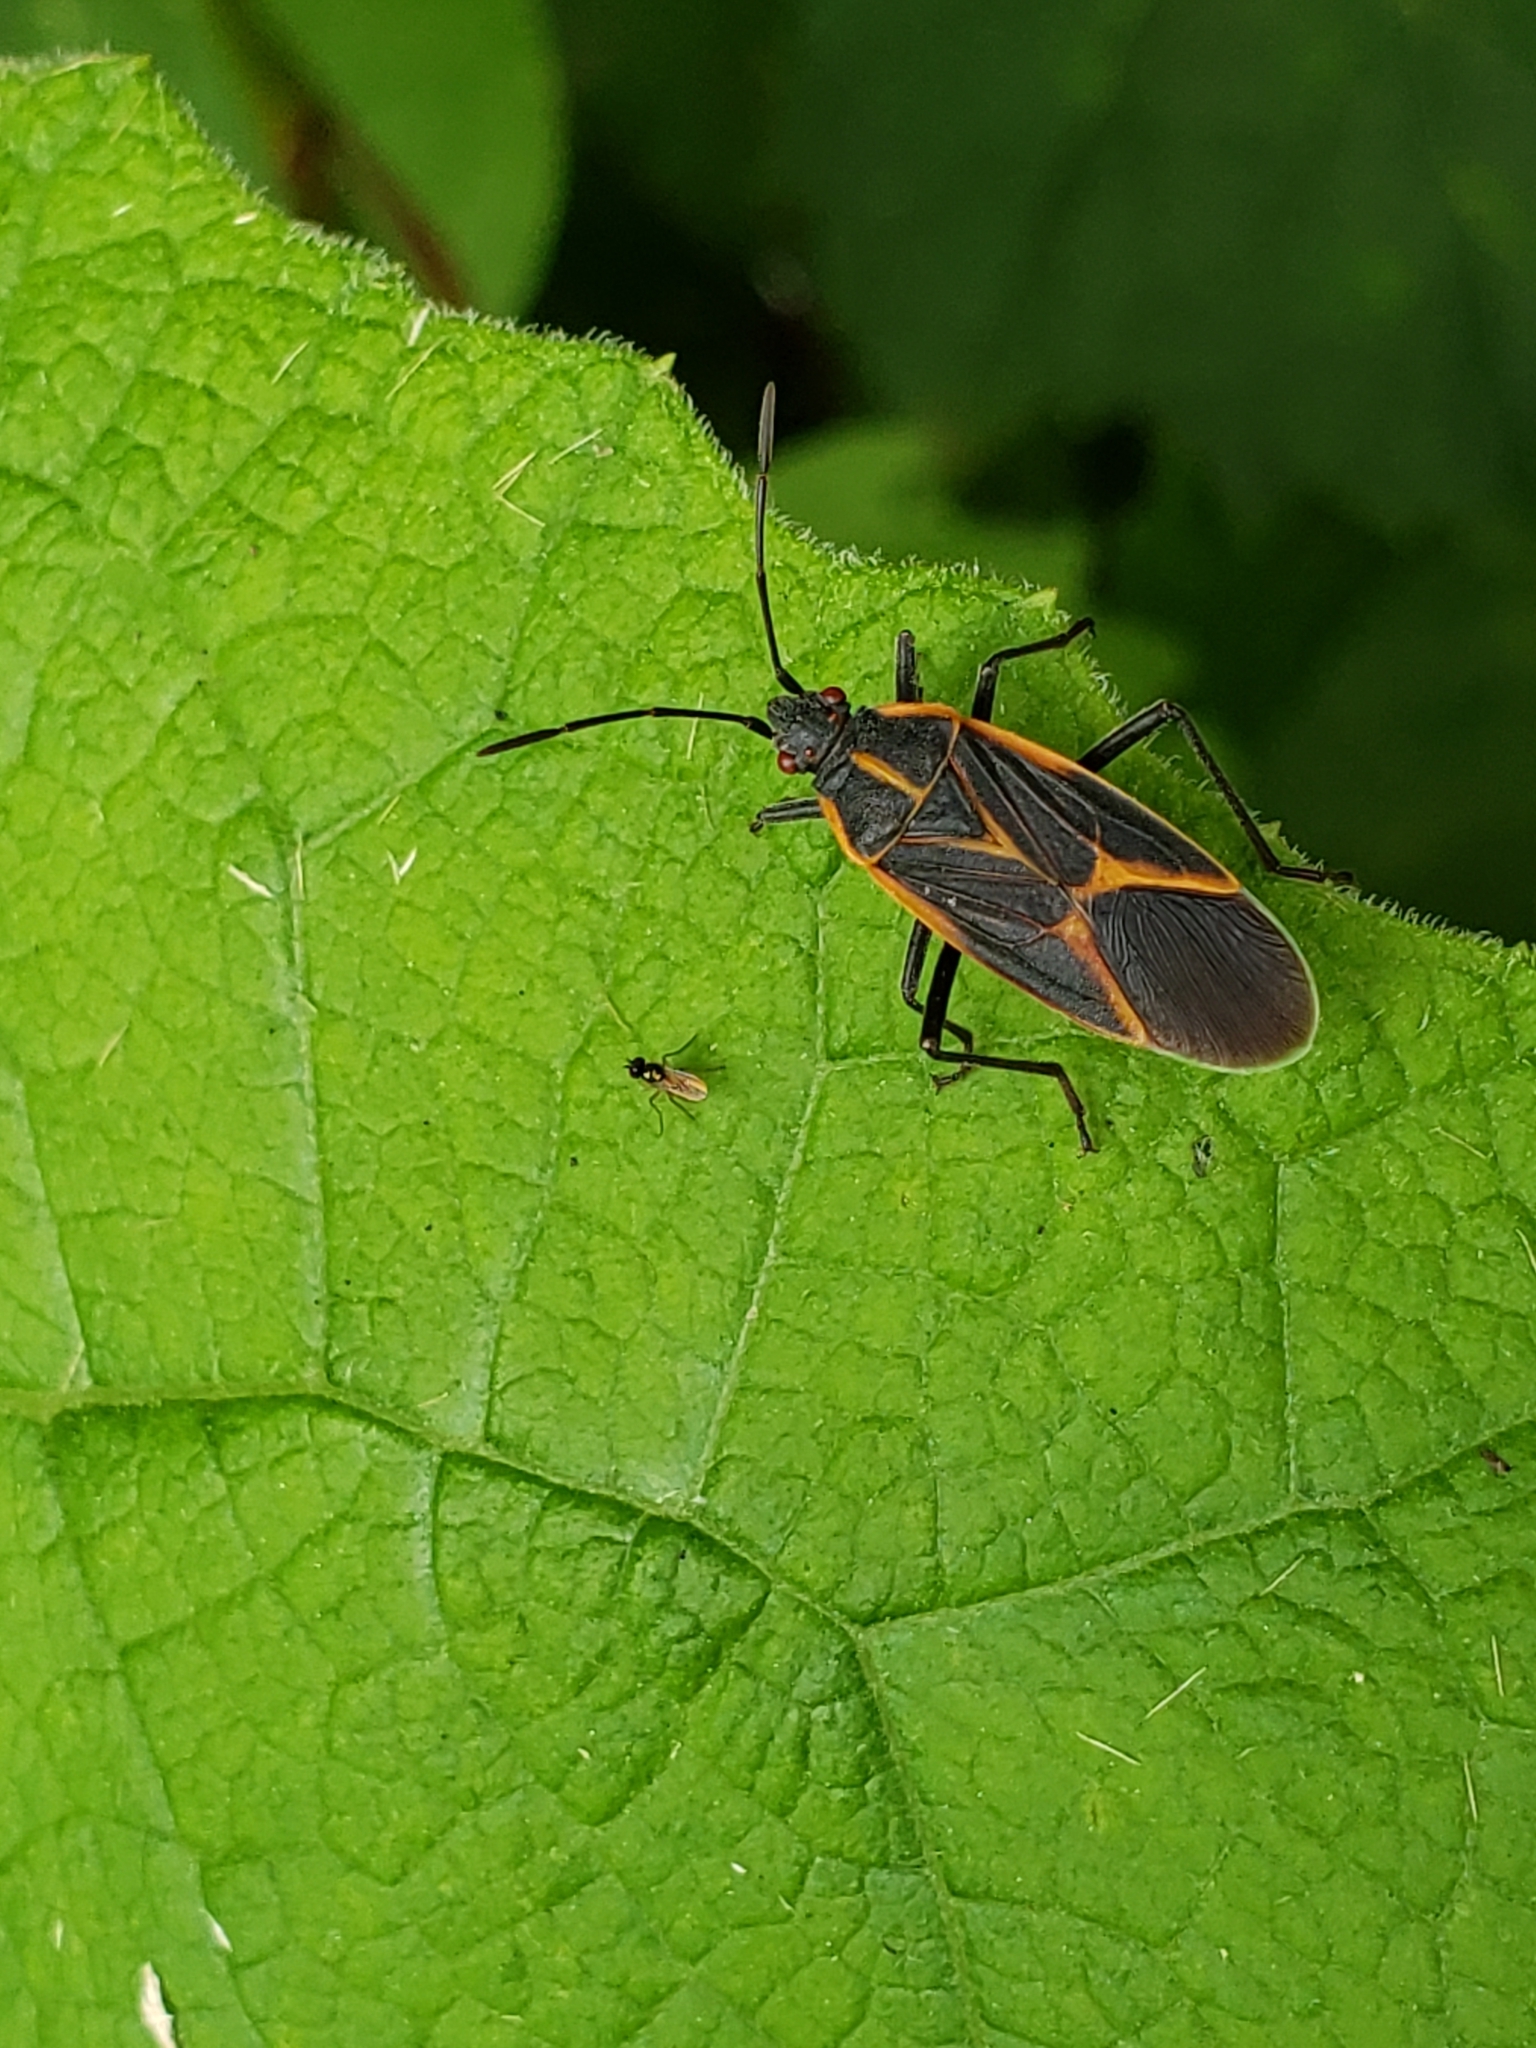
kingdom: Animalia
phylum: Arthropoda
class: Insecta
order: Hemiptera
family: Rhopalidae
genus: Boisea
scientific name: Boisea trivittata
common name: Boxelder bug
